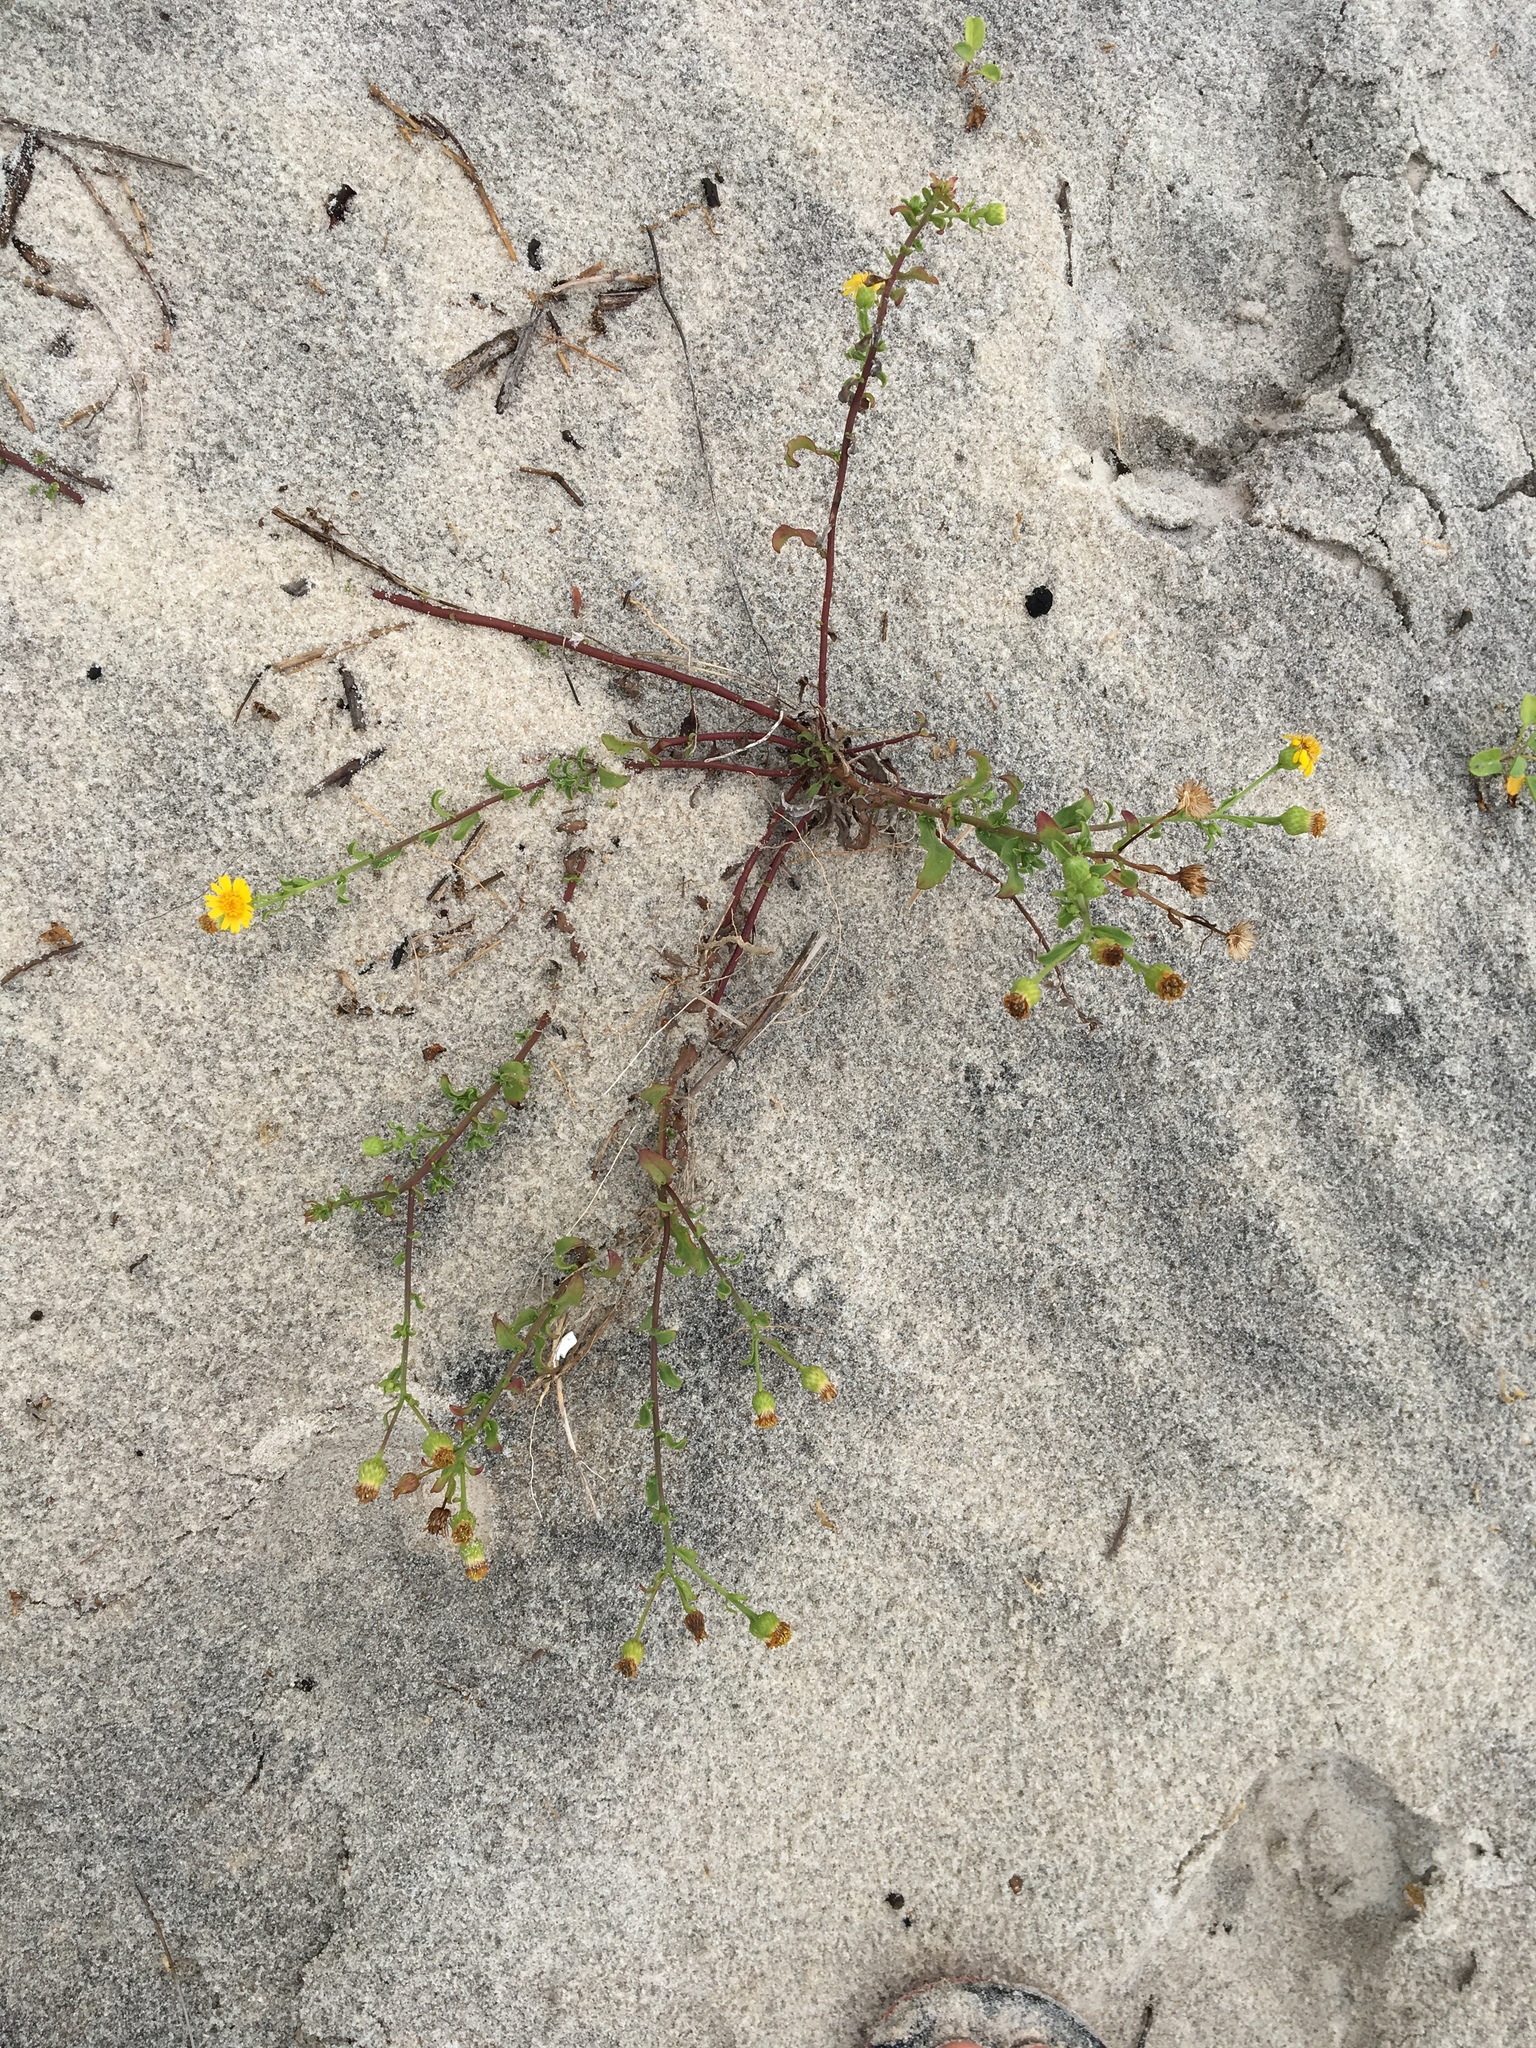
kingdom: Plantae
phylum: Tracheophyta
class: Magnoliopsida
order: Asterales
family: Asteraceae
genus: Heterotheca
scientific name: Heterotheca subaxillaris
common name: Camphorweed
